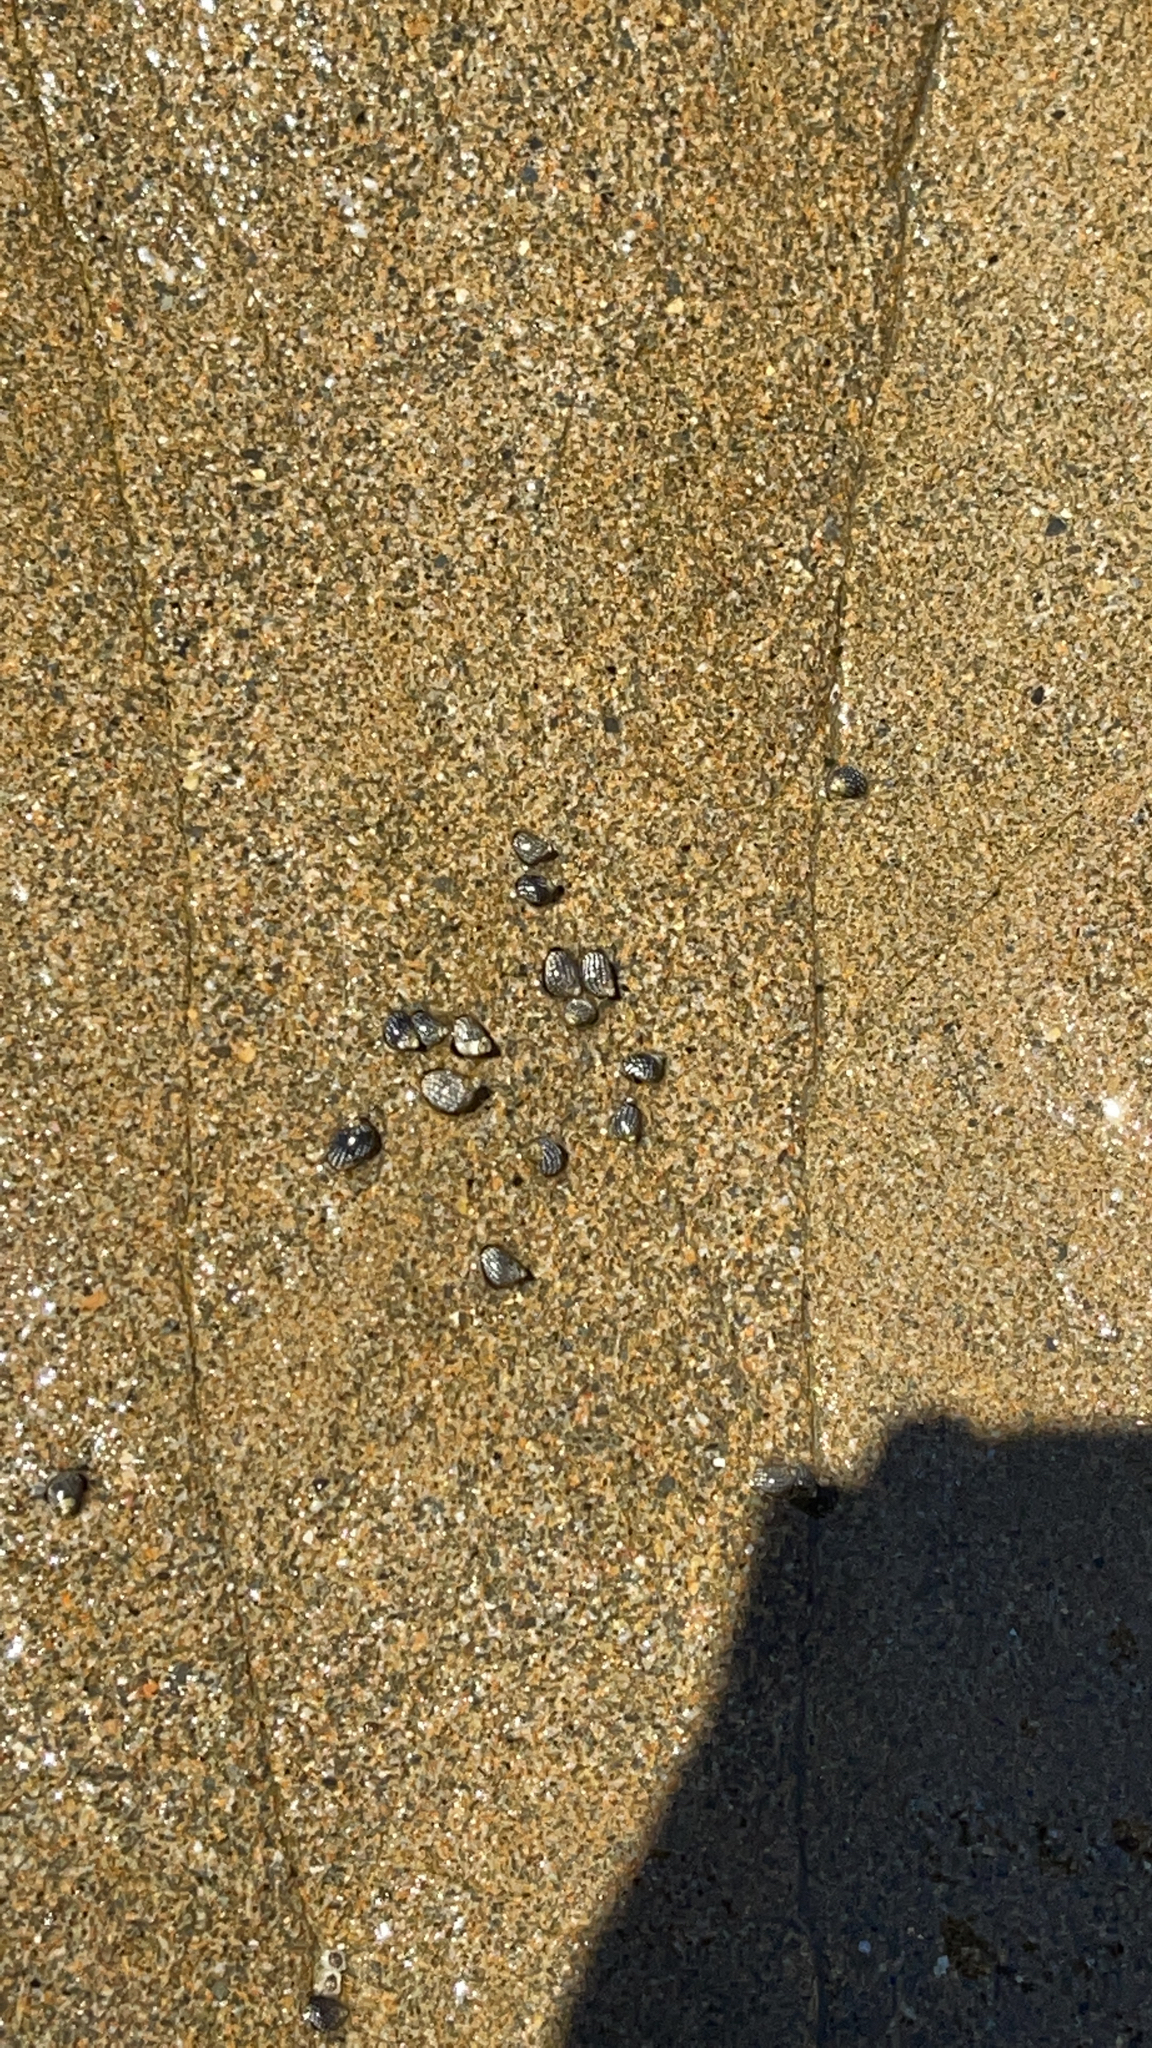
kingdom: Animalia
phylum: Mollusca
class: Gastropoda
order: Littorinimorpha
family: Littorinidae
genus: Echinolittorina
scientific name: Echinolittorina punctata
